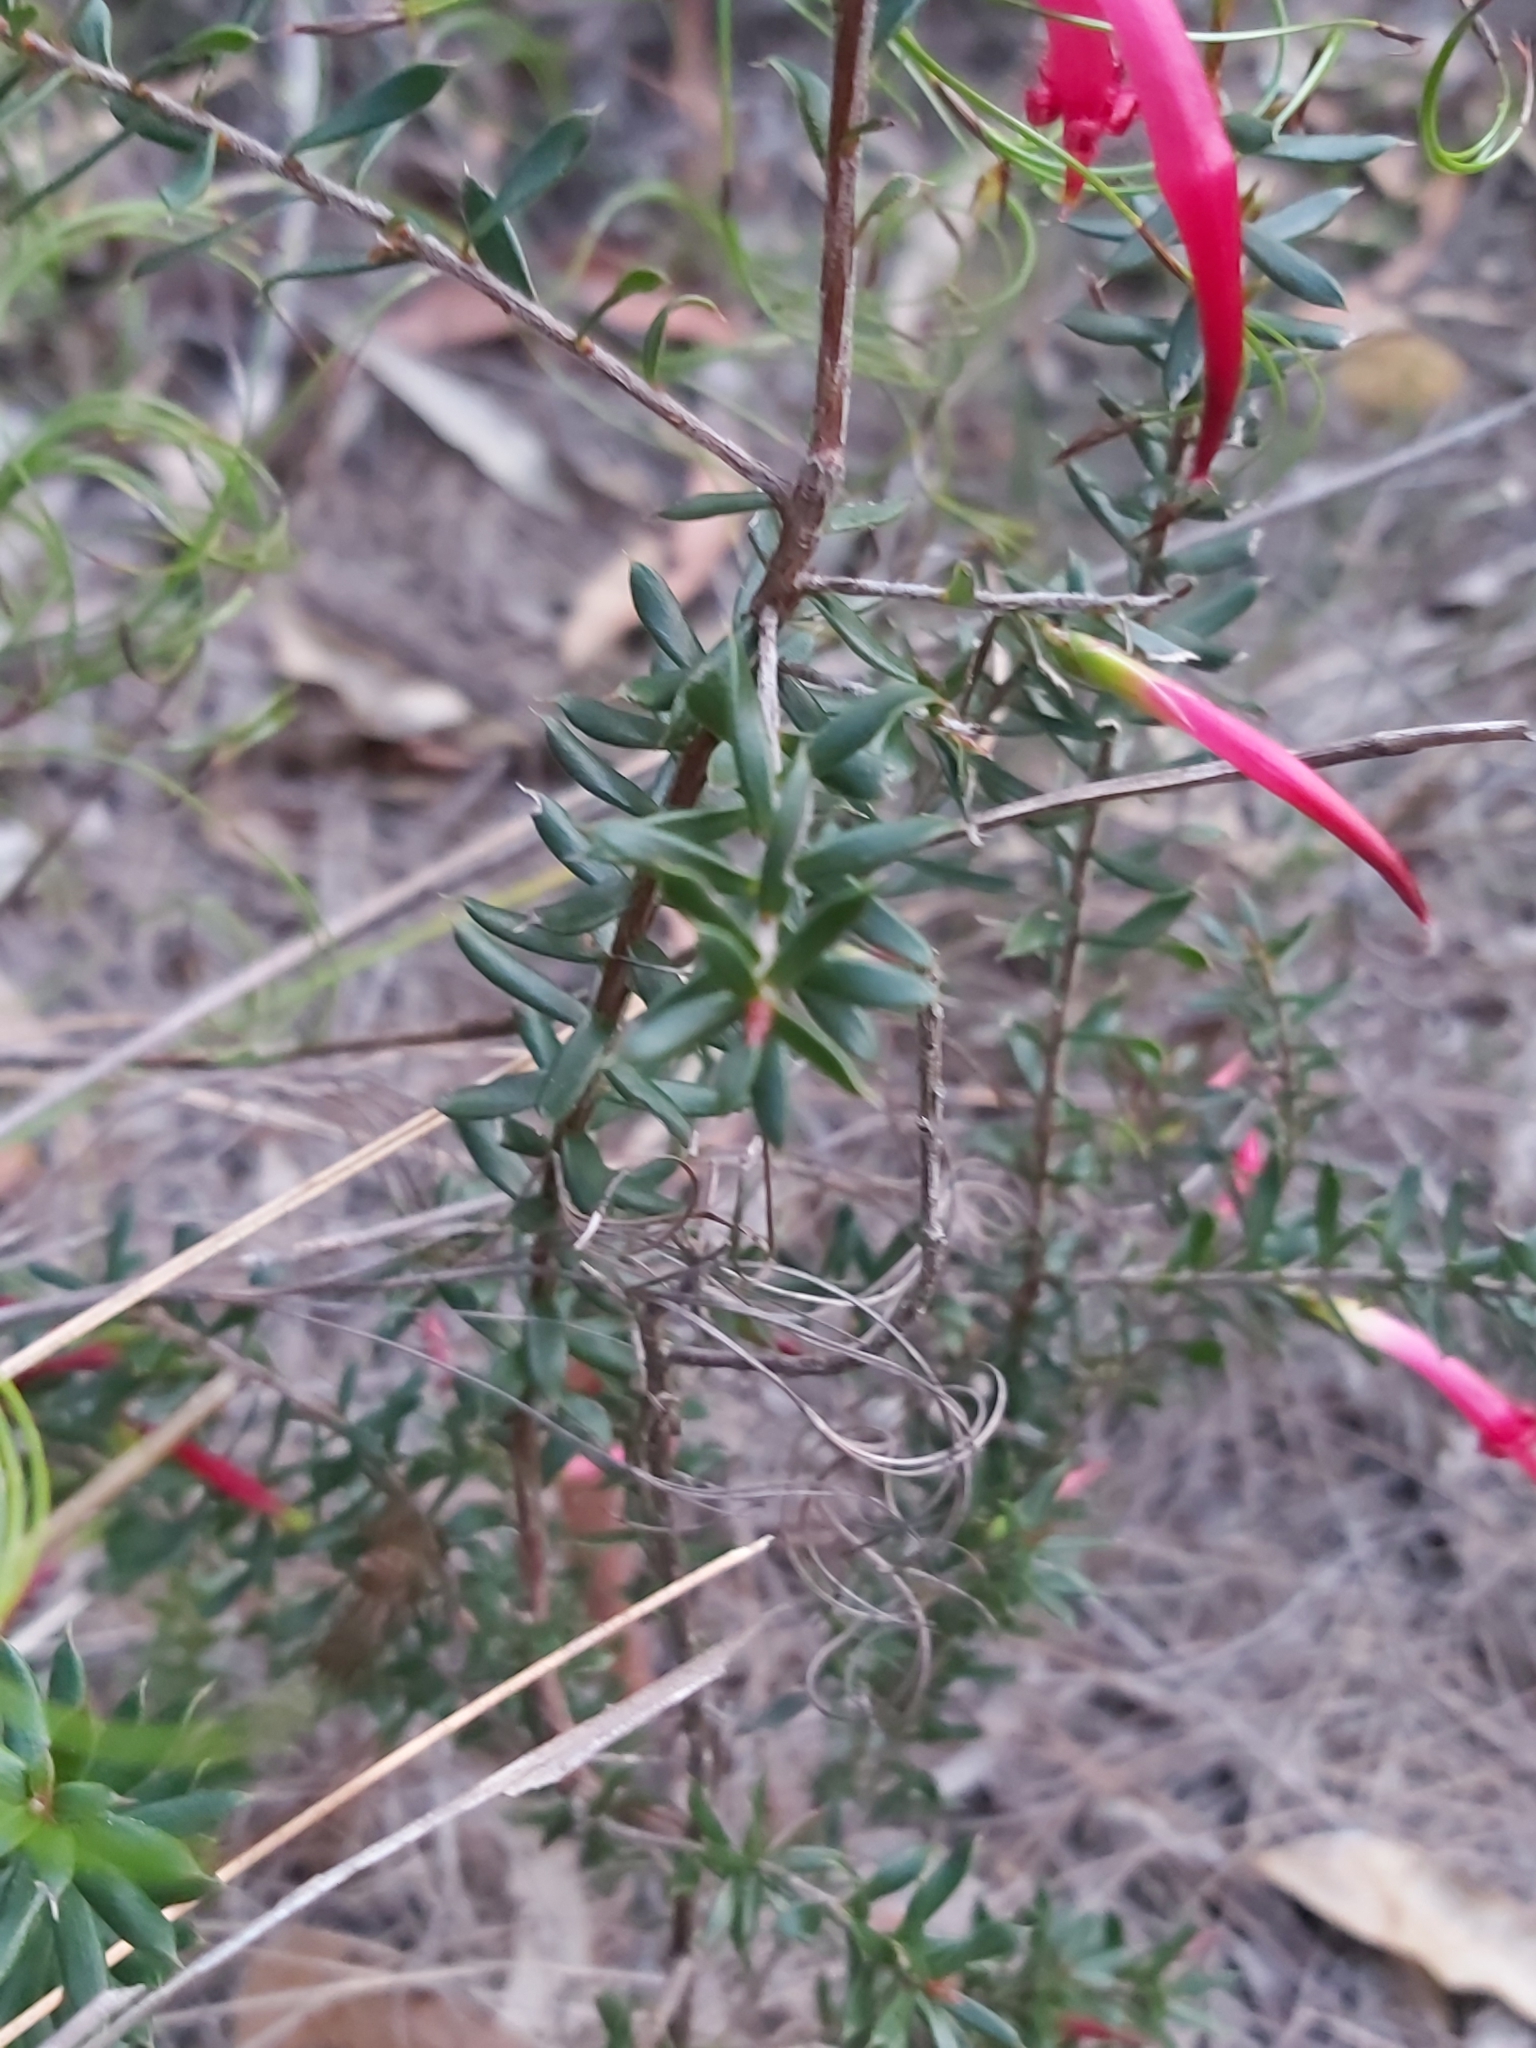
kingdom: Plantae
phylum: Tracheophyta
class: Magnoliopsida
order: Ericales
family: Ericaceae
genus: Styphelia
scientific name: Styphelia tubiflora
